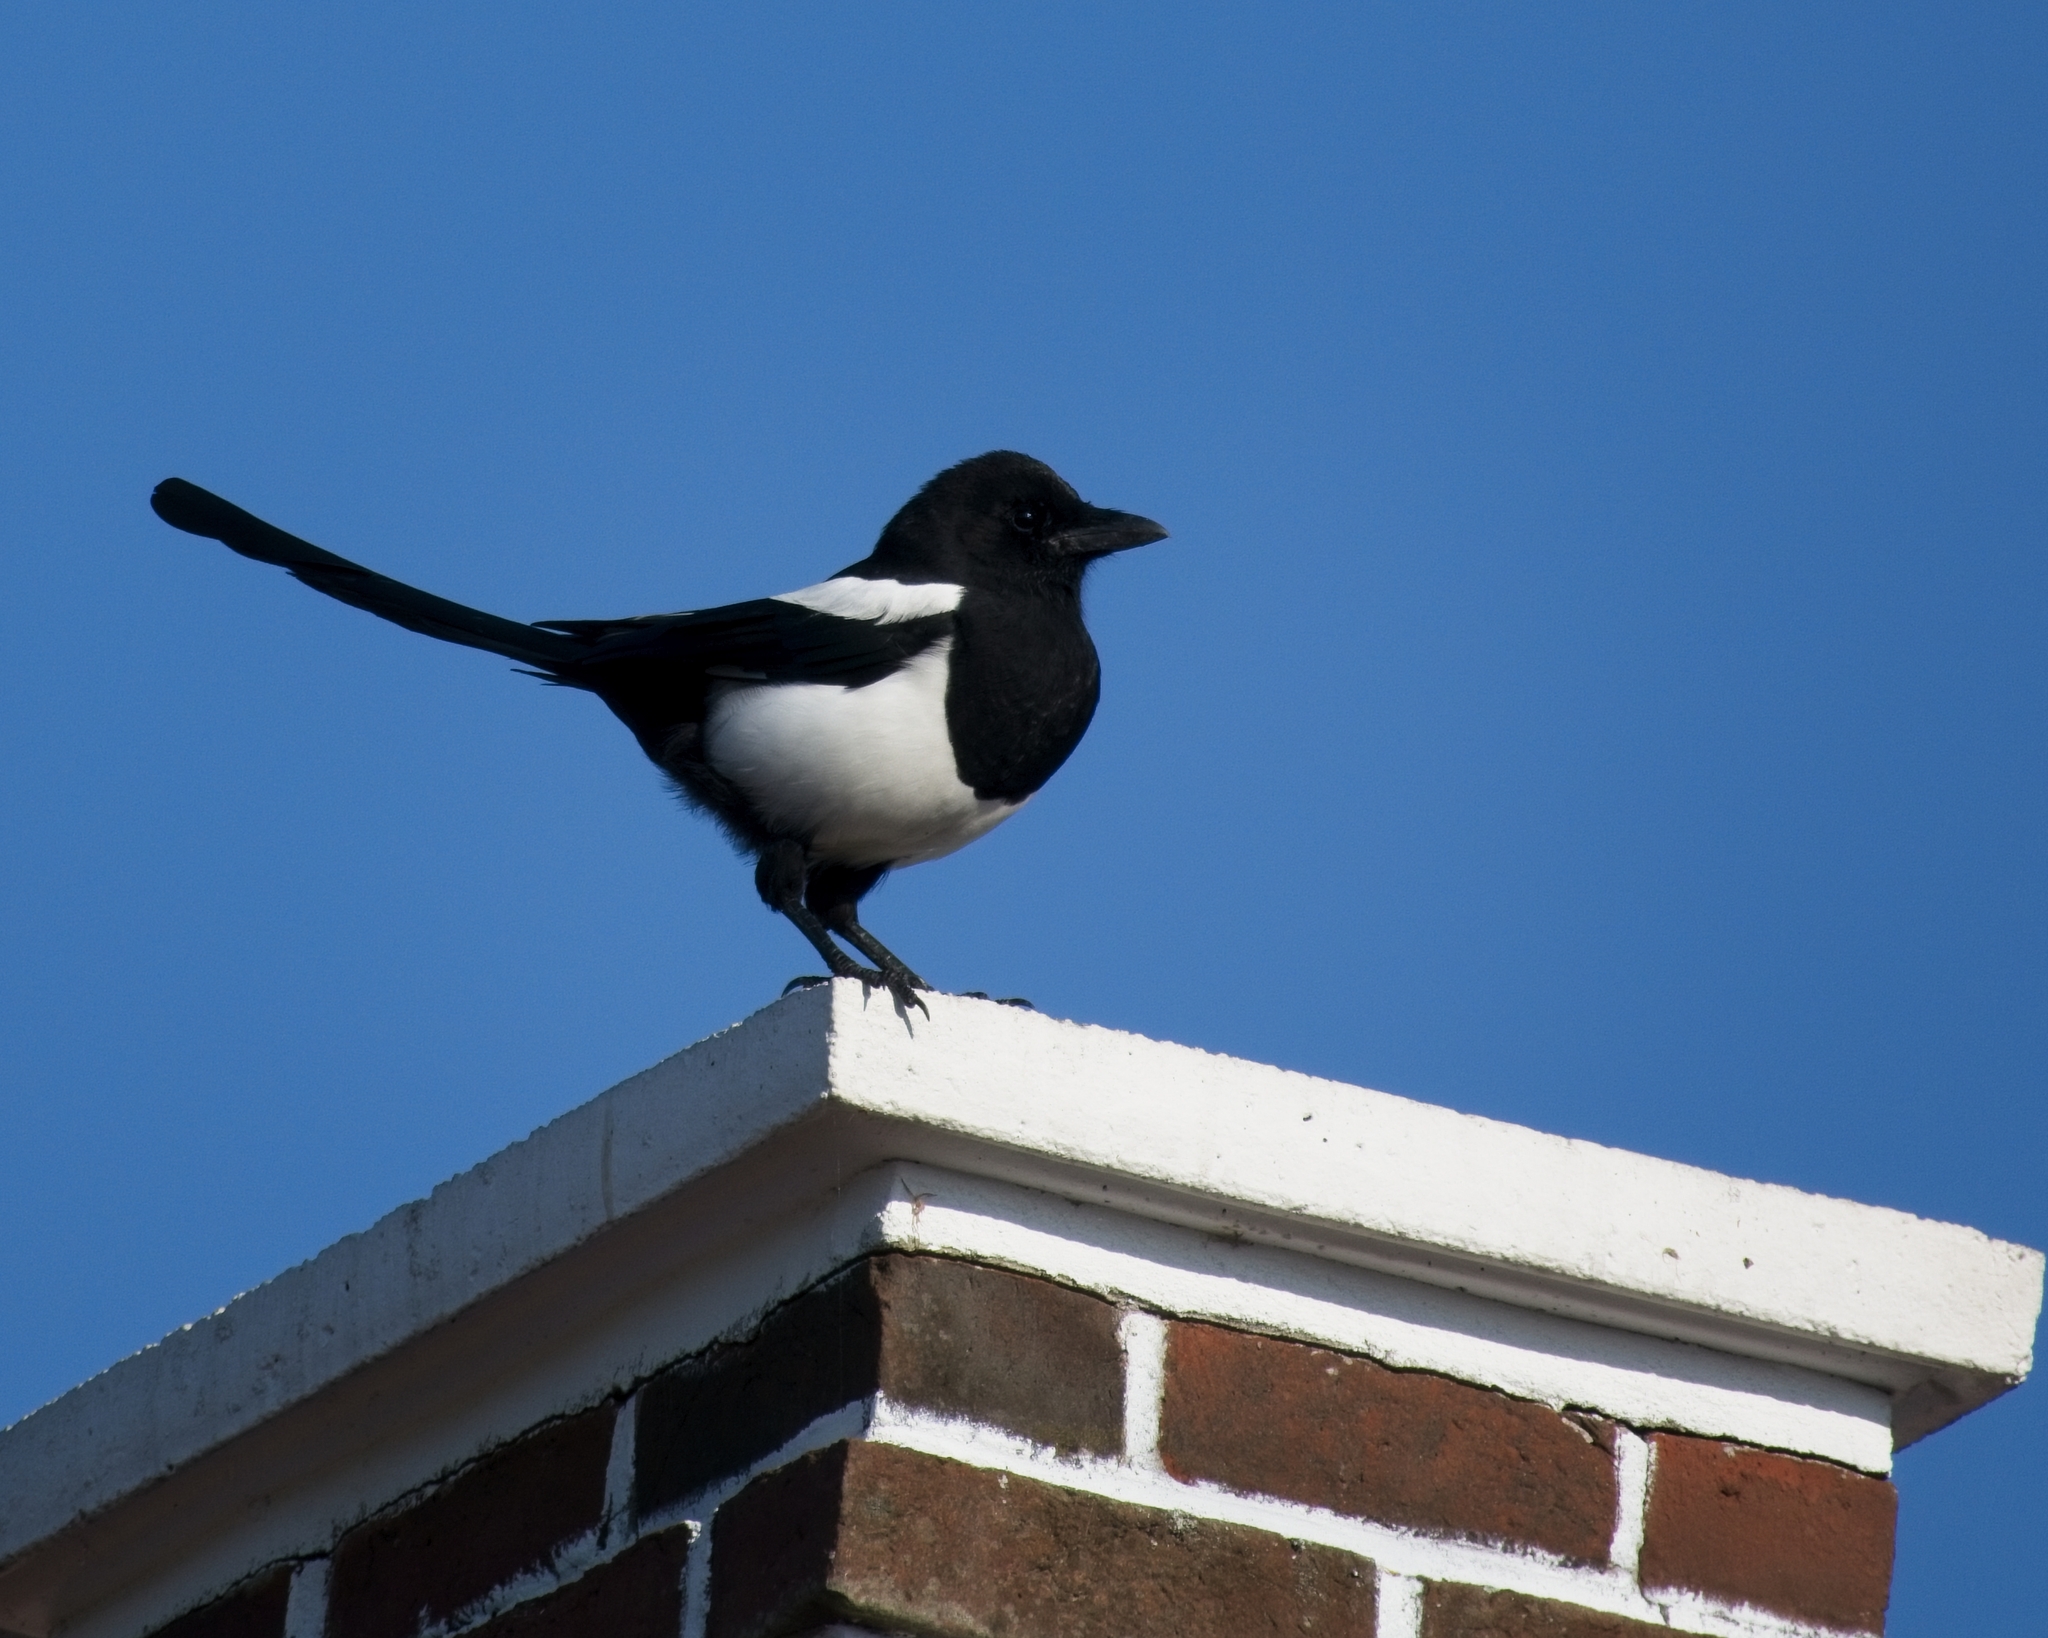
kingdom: Animalia
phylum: Chordata
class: Aves
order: Passeriformes
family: Corvidae
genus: Pica
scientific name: Pica pica
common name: Eurasian magpie
